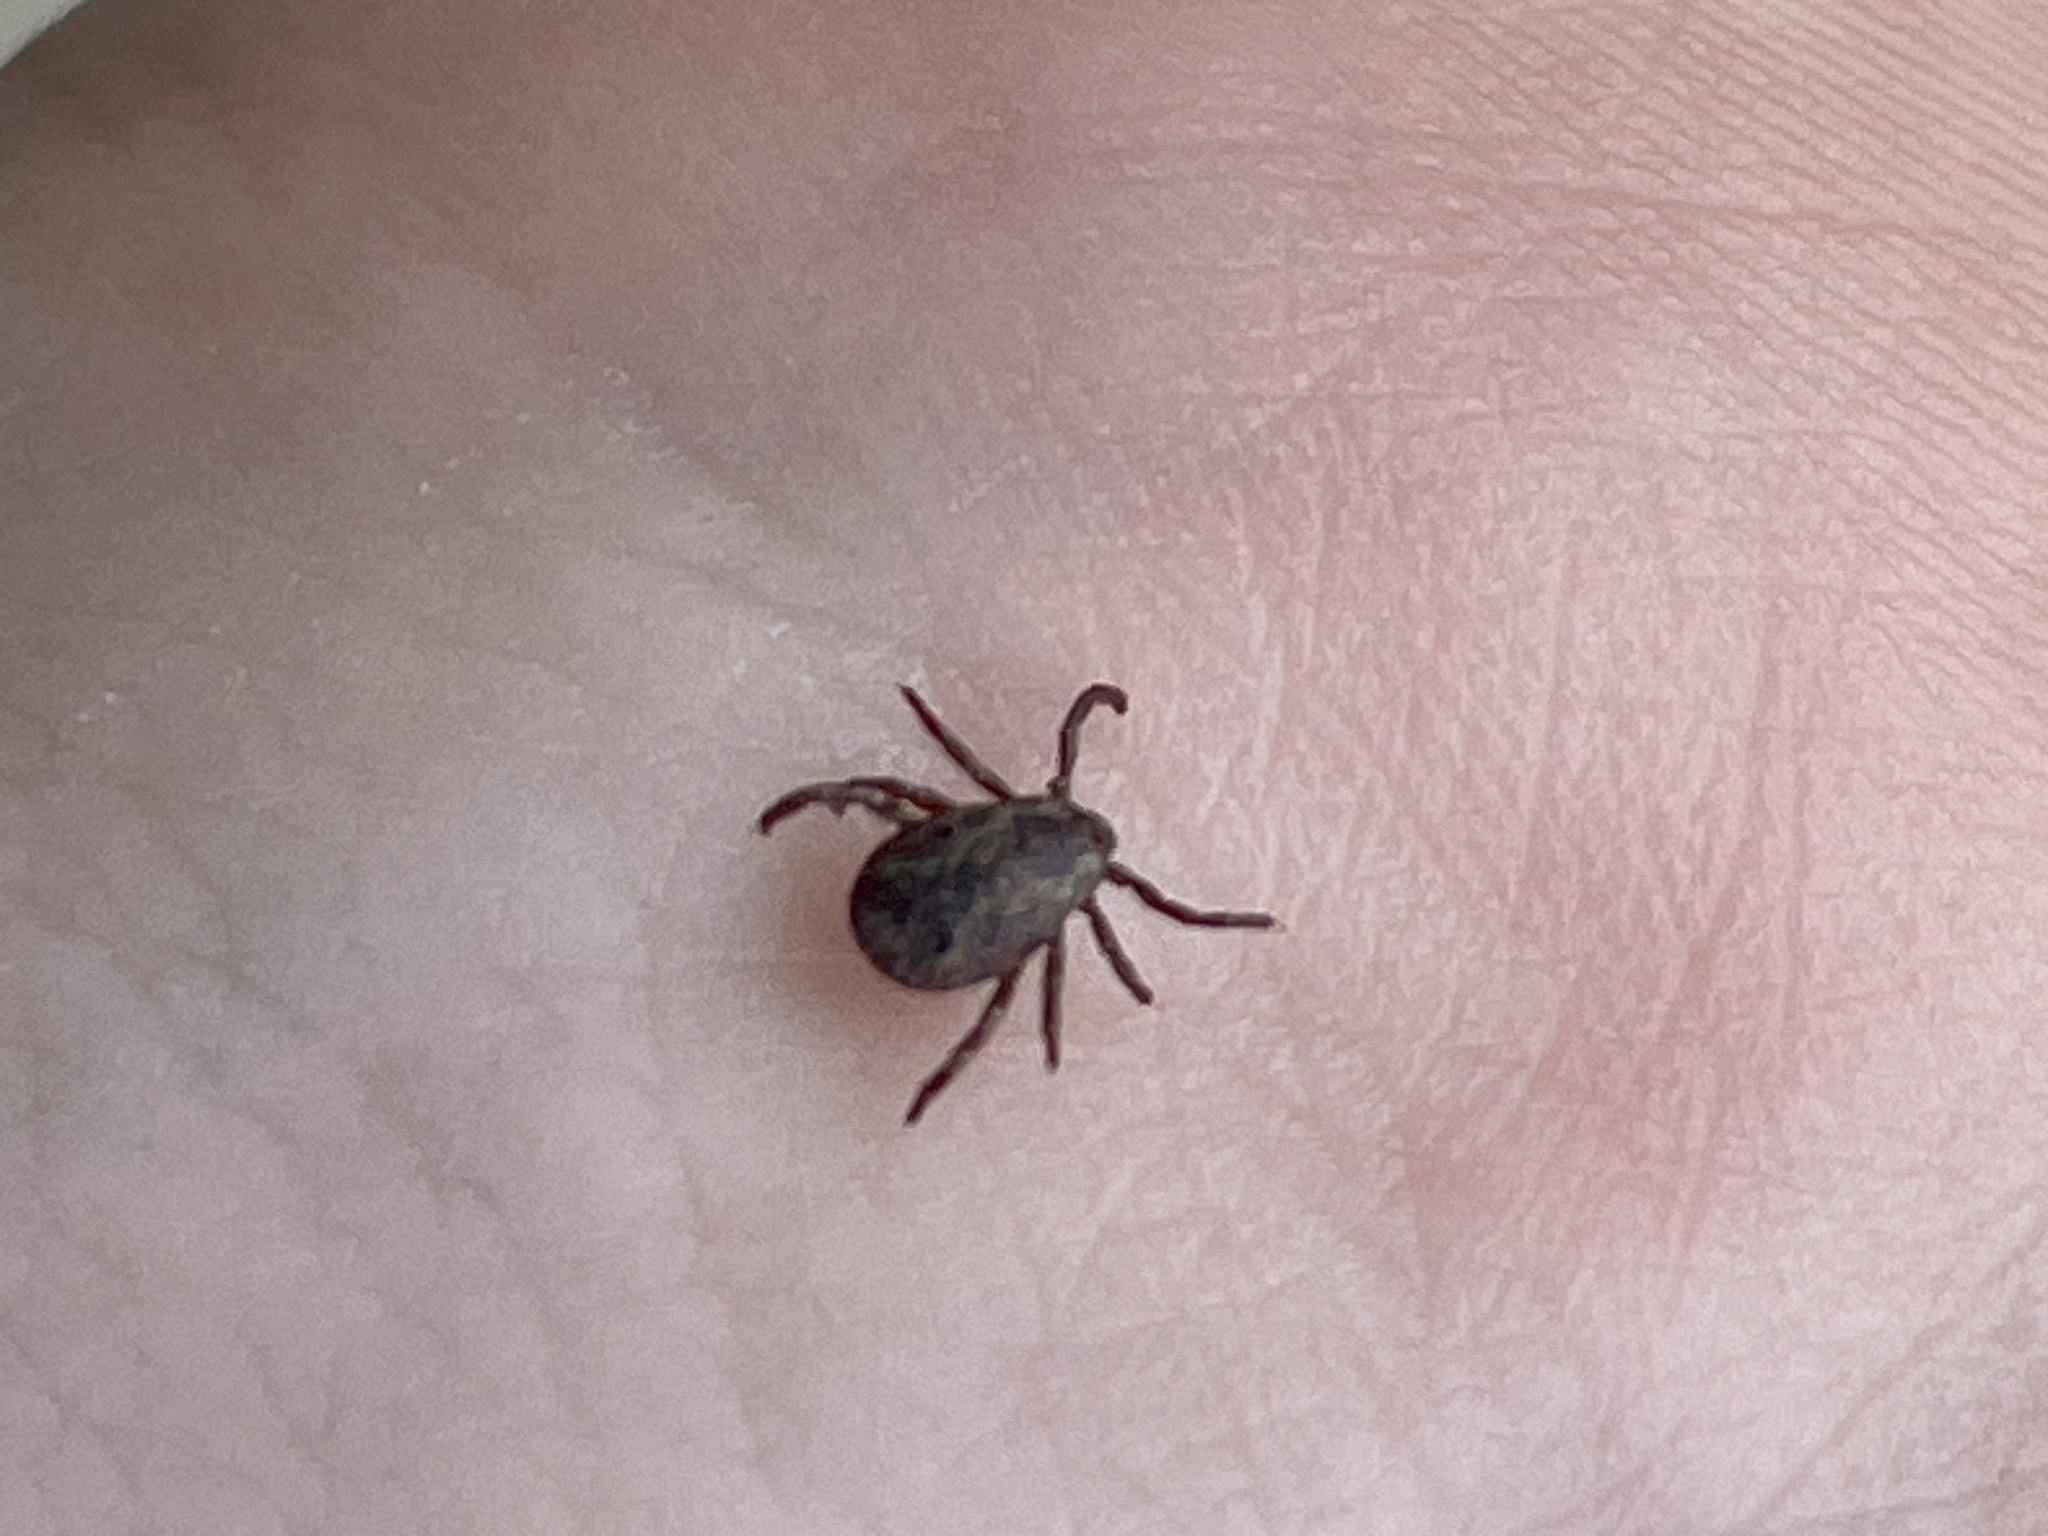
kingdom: Animalia
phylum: Arthropoda
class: Arachnida
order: Ixodida
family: Ixodidae
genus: Dermacentor
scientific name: Dermacentor variabilis
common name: American dog tick
